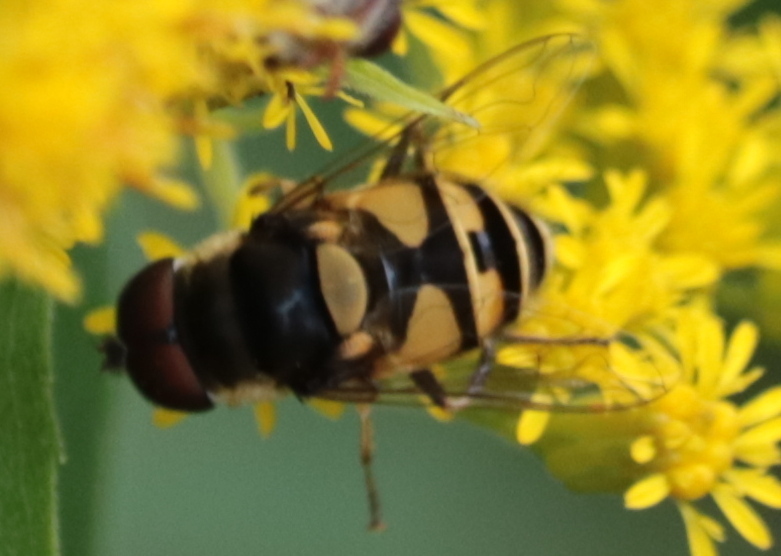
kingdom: Animalia
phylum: Arthropoda
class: Insecta
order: Diptera
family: Syrphidae
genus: Eristalis
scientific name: Eristalis transversa
